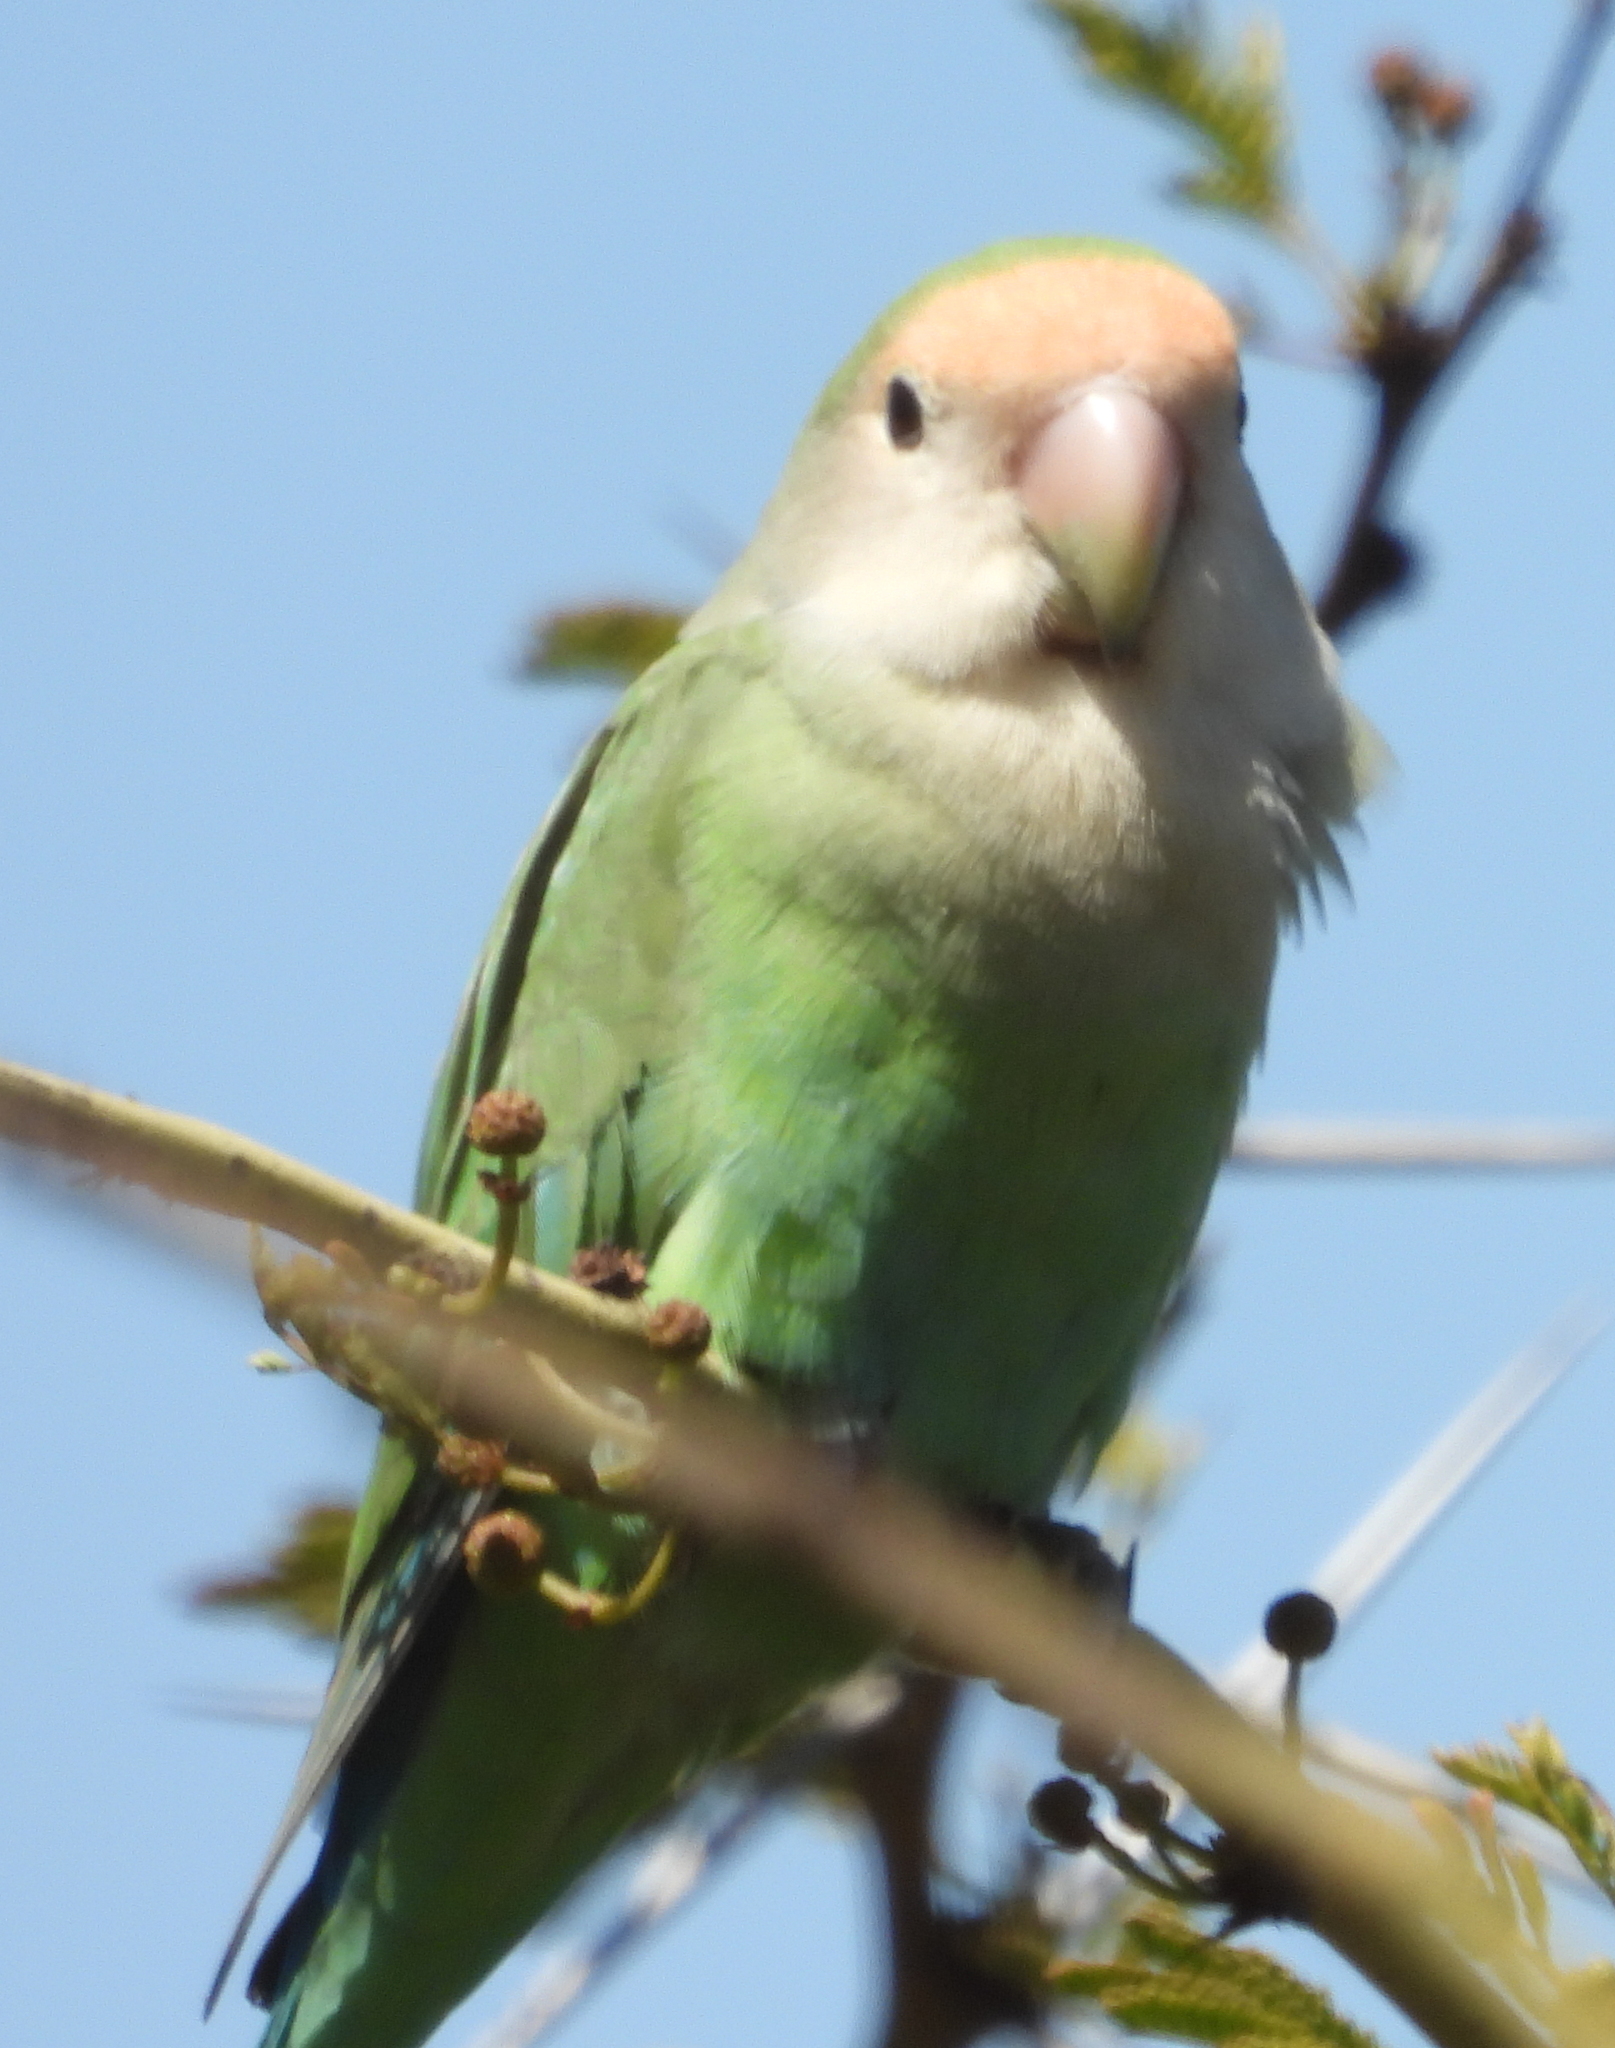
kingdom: Animalia
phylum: Chordata
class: Aves
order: Psittaciformes
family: Psittacidae
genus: Agapornis
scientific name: Agapornis roseicollis
